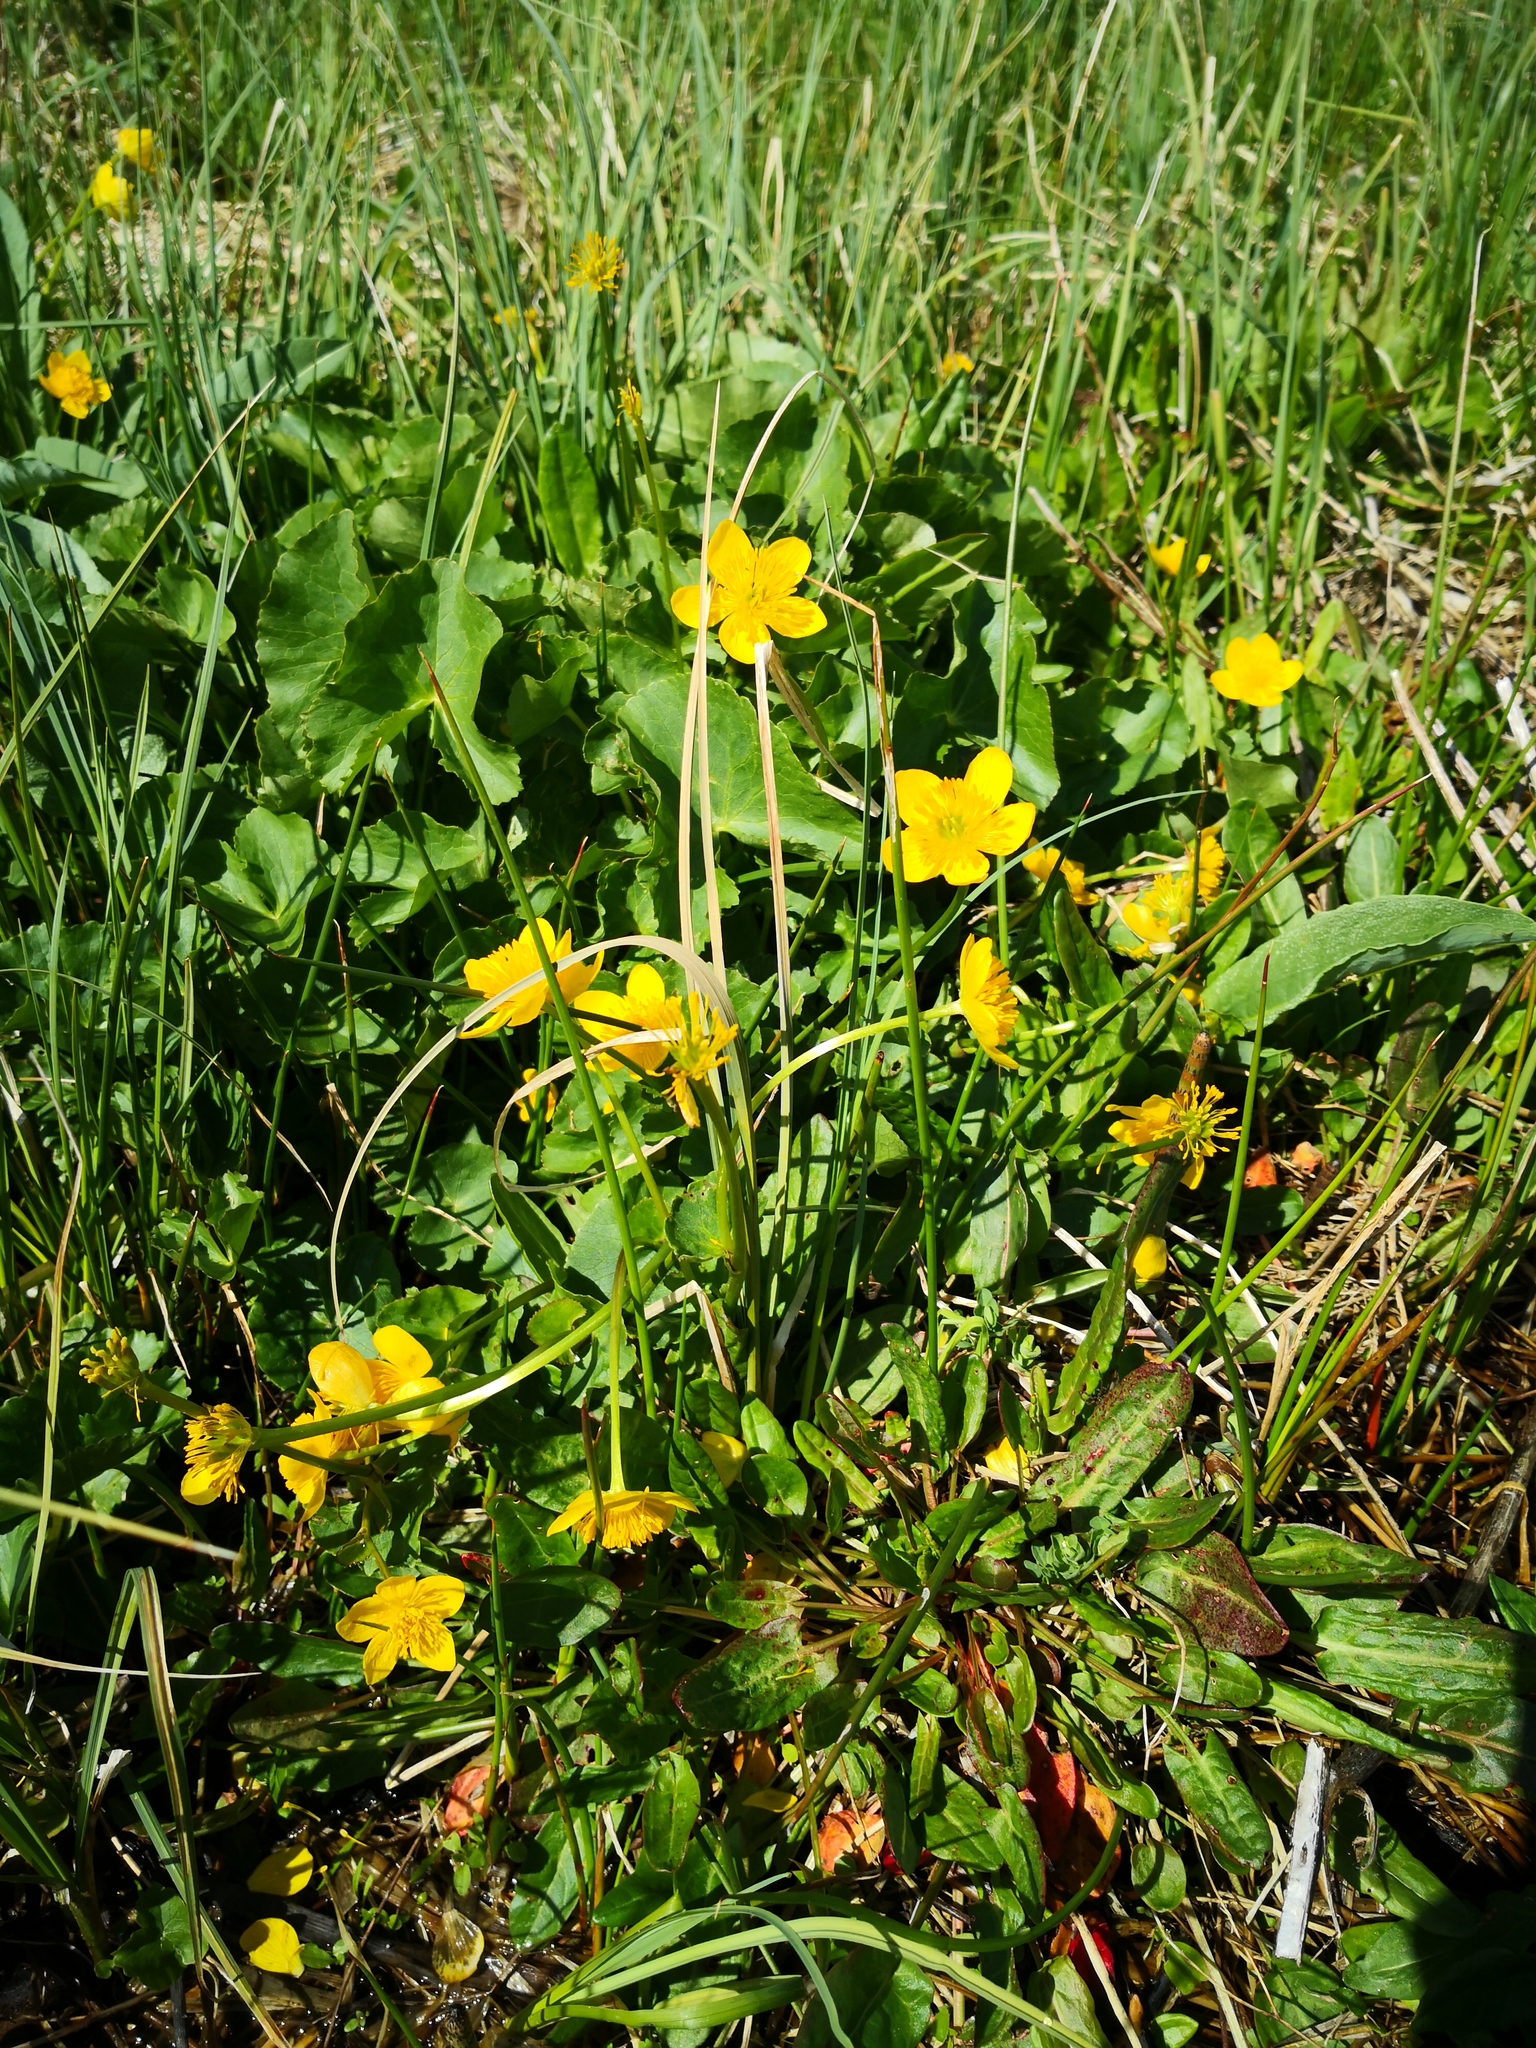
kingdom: Plantae
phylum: Tracheophyta
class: Magnoliopsida
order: Ranunculales
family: Ranunculaceae
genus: Caltha
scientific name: Caltha palustris
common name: Marsh marigold
